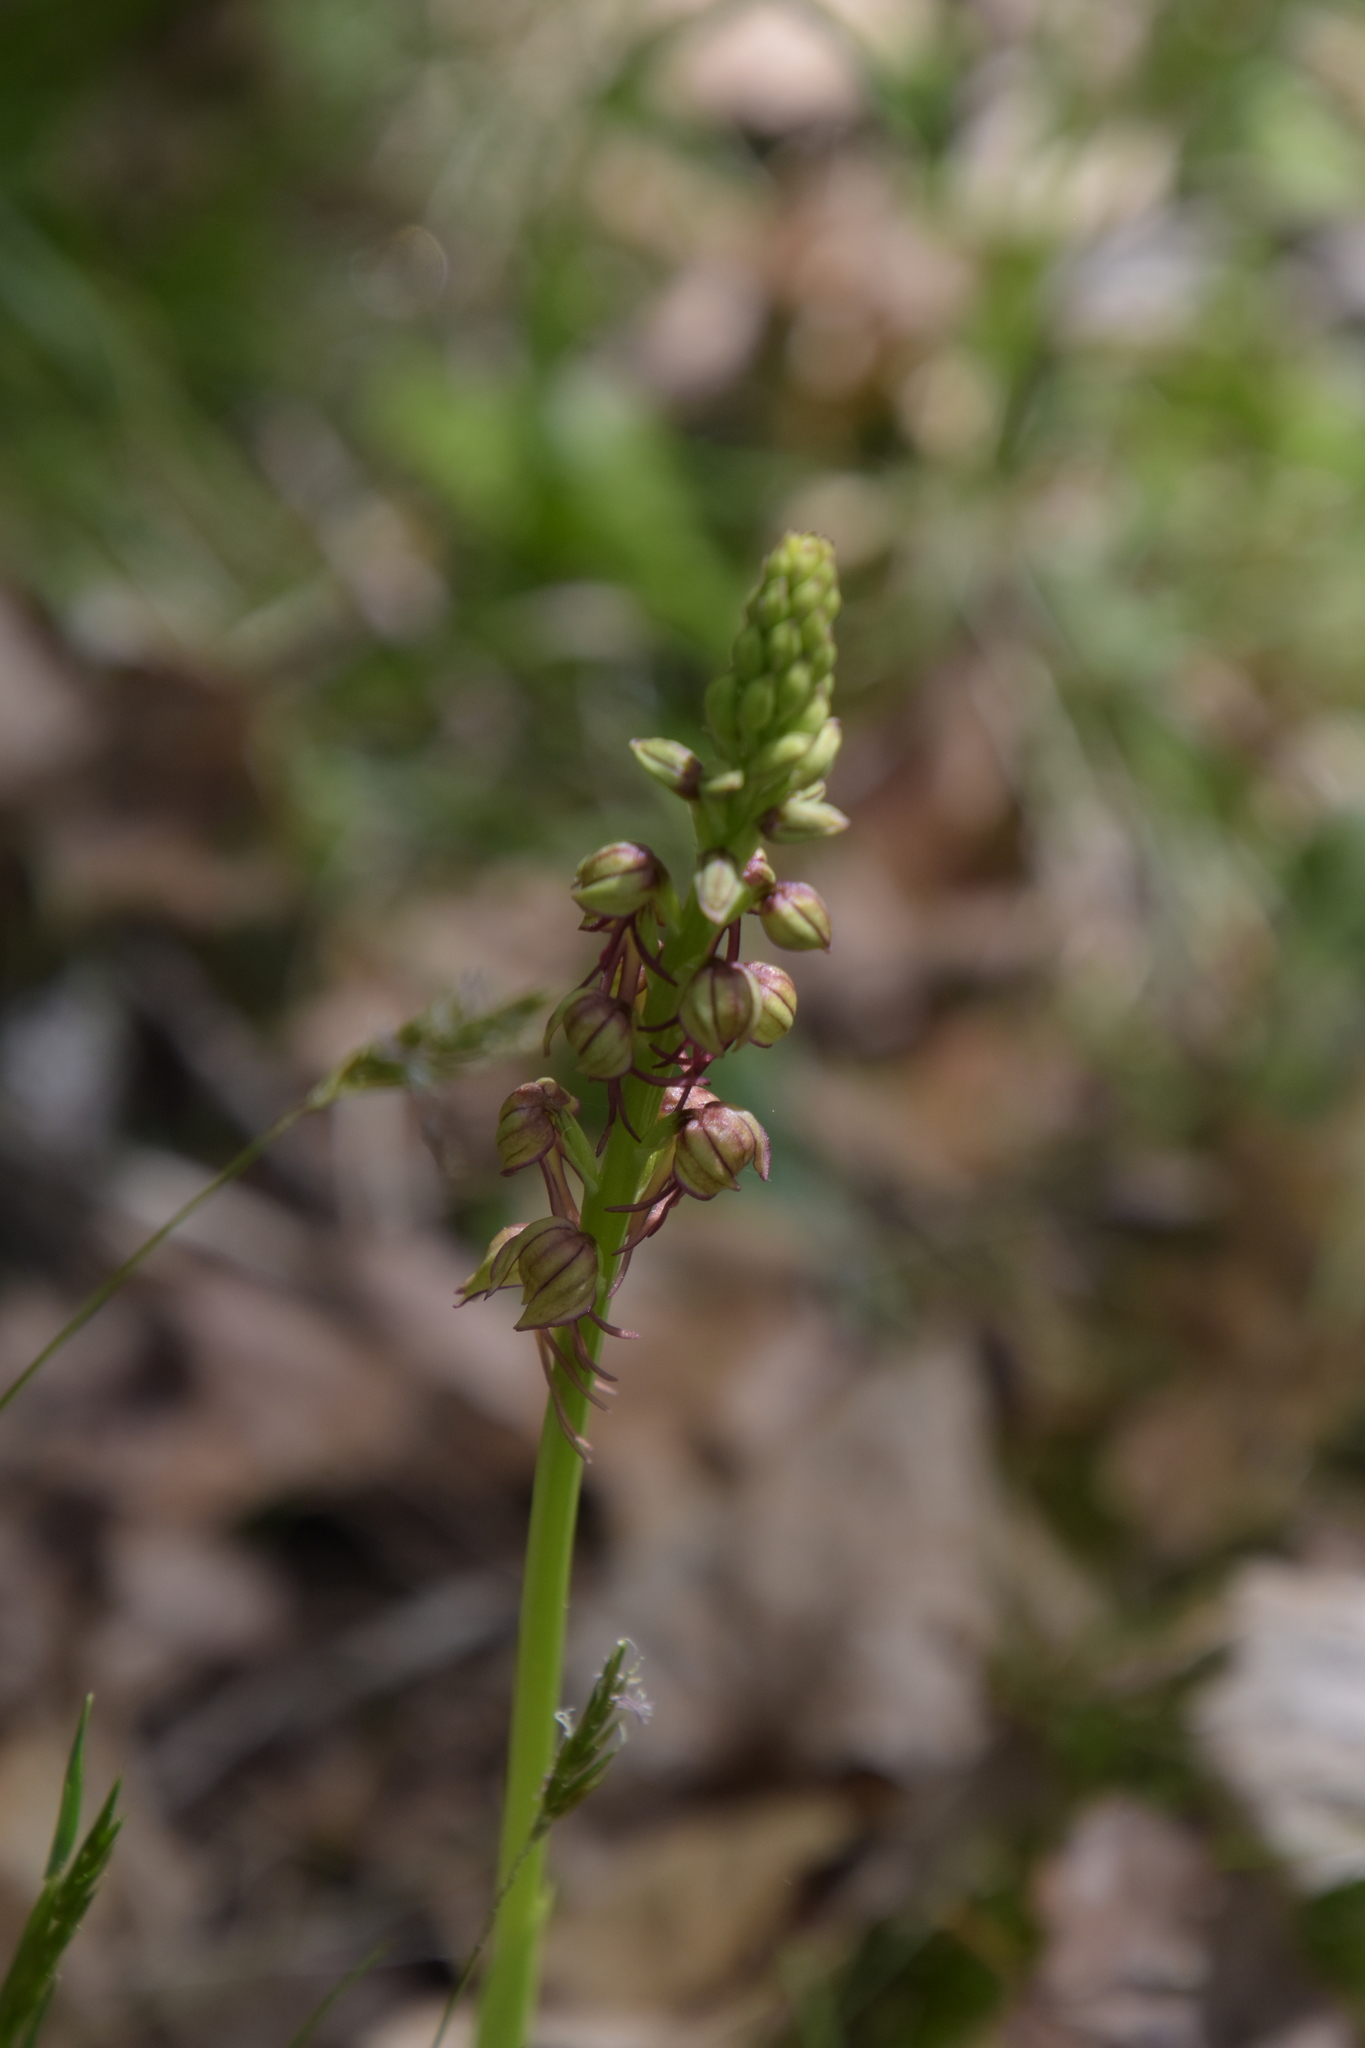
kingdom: Plantae
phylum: Tracheophyta
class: Liliopsida
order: Asparagales
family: Orchidaceae
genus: Orchis
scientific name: Orchis anthropophora
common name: Man orchid
